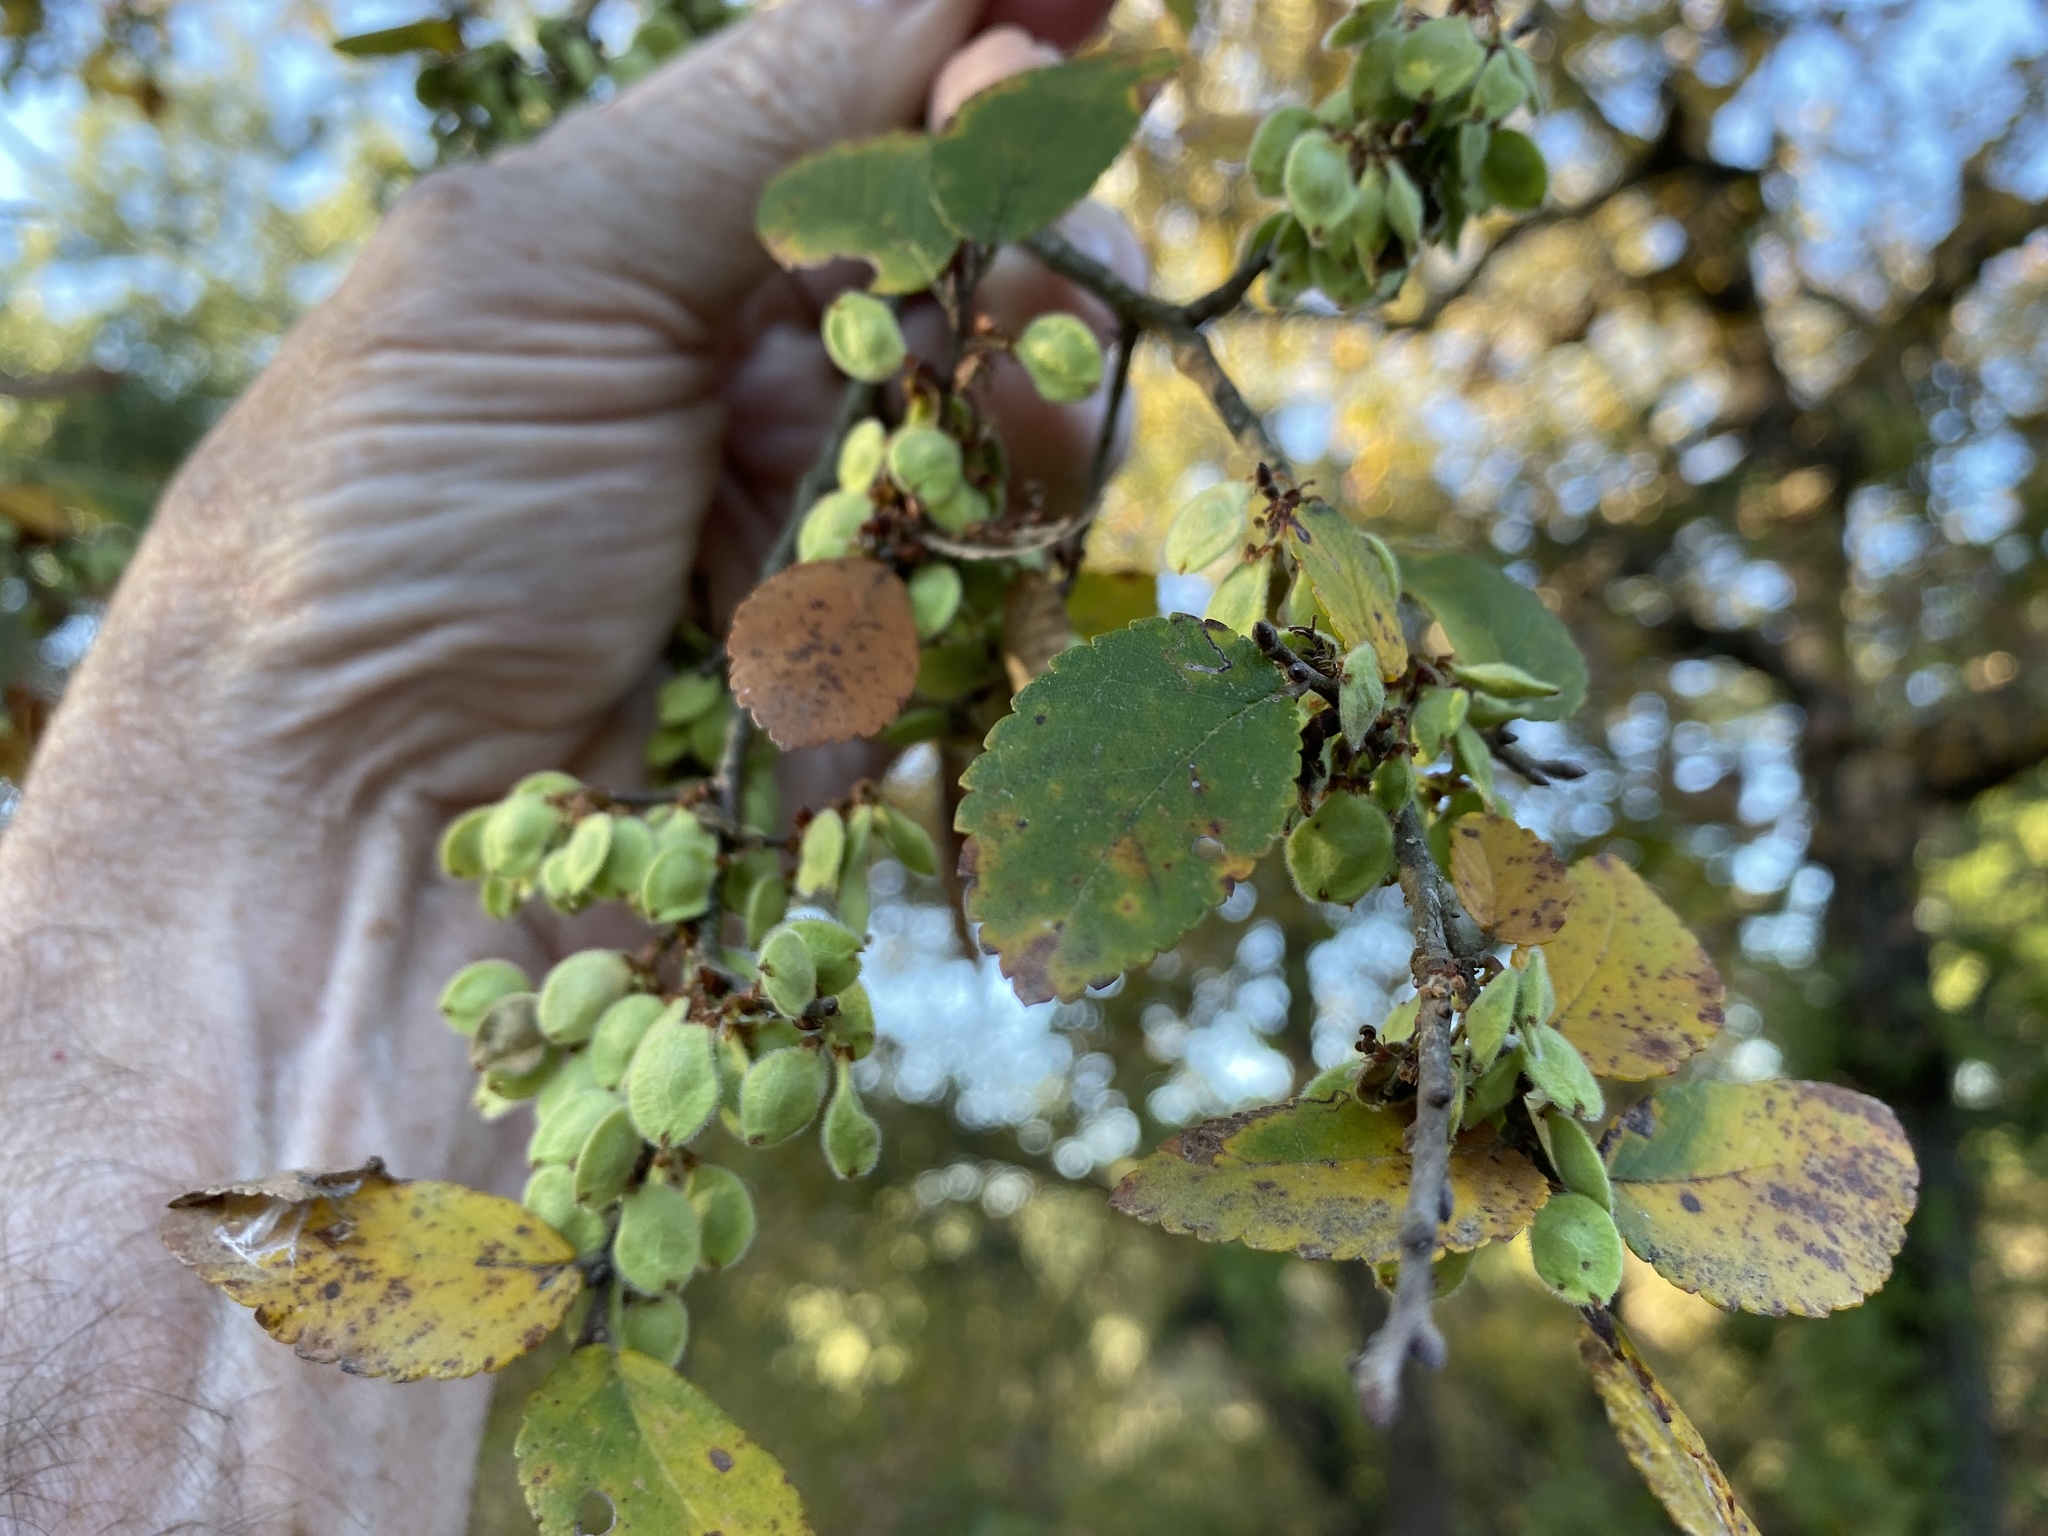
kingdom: Plantae
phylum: Tracheophyta
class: Magnoliopsida
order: Rosales
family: Ulmaceae
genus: Ulmus
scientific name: Ulmus crassifolia
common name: Basket elm
